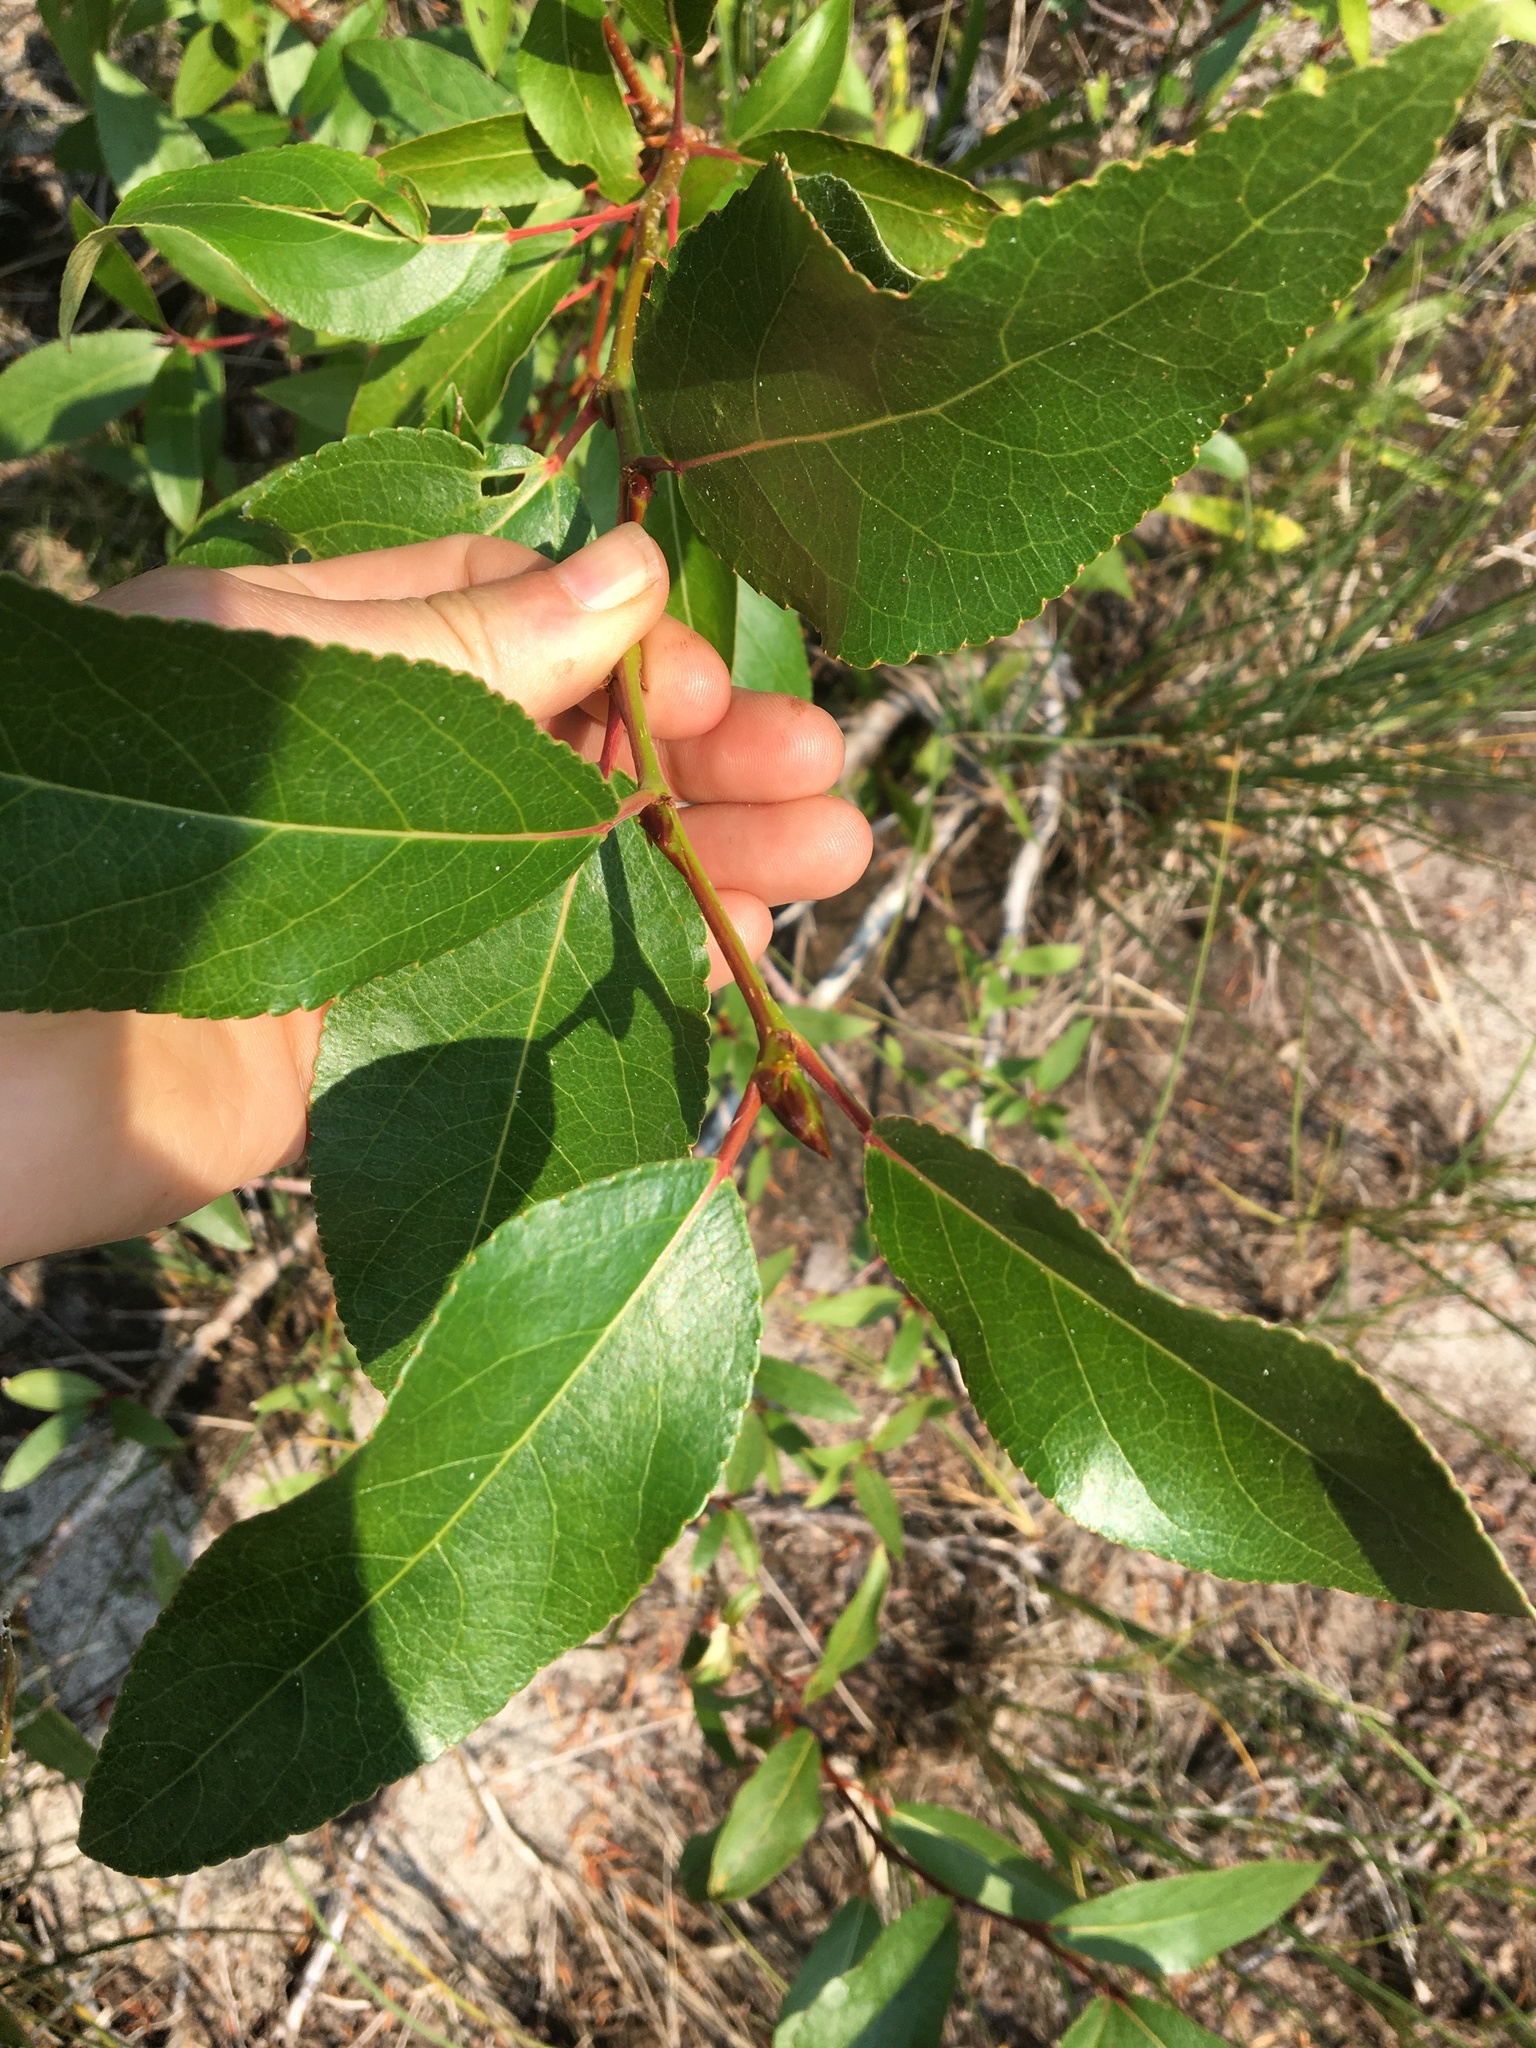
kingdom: Plantae
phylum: Tracheophyta
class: Magnoliopsida
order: Malpighiales
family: Salicaceae
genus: Populus
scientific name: Populus trichocarpa
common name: Black cottonwood
